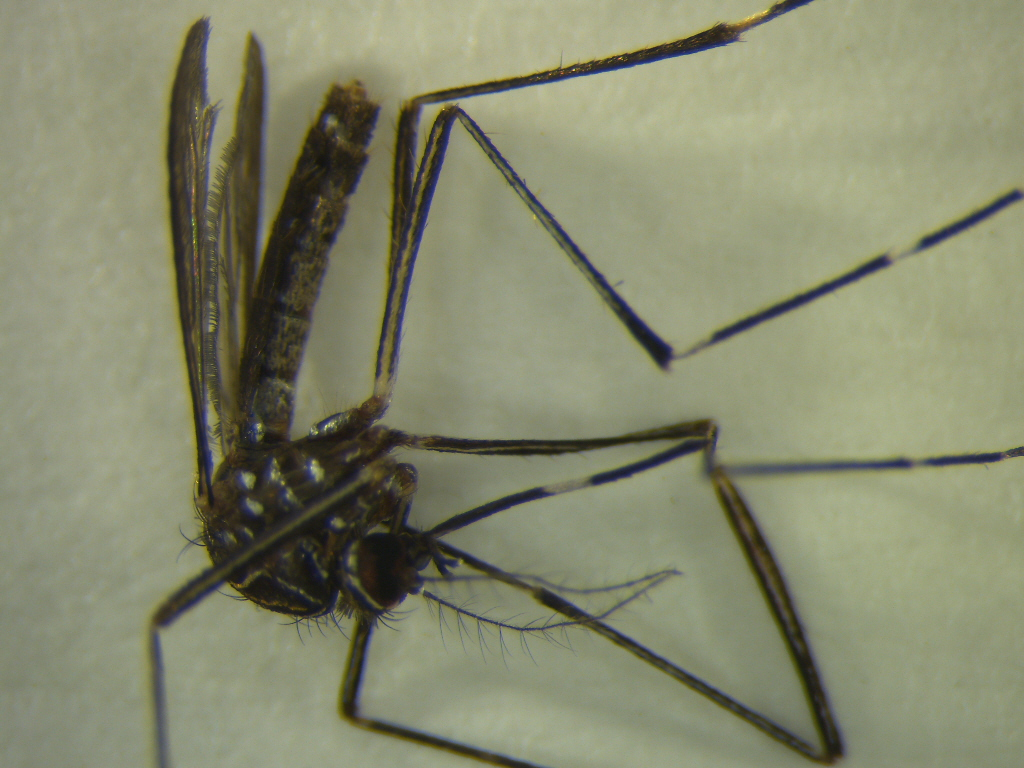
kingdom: Animalia
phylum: Arthropoda
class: Insecta
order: Diptera
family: Culicidae
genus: Aedes
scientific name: Aedes notoscriptus
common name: Australian backyard mosquito
